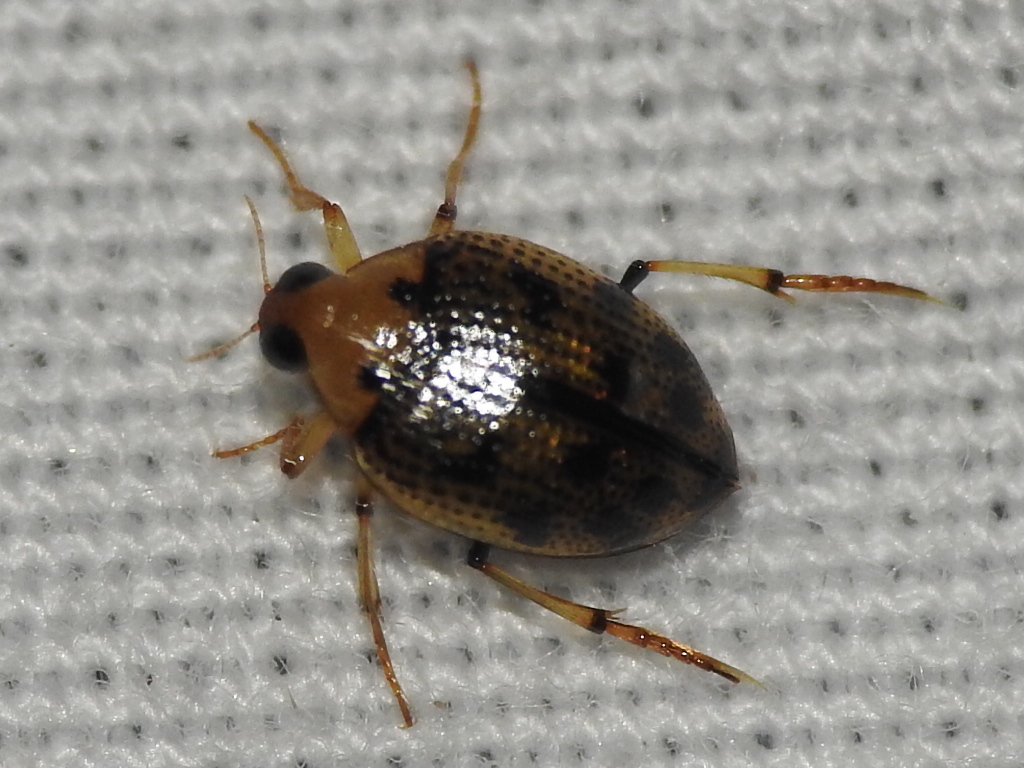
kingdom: Animalia
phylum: Arthropoda
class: Insecta
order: Coleoptera
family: Haliplidae
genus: Peltodytes
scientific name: Peltodytes sexmaculatus
